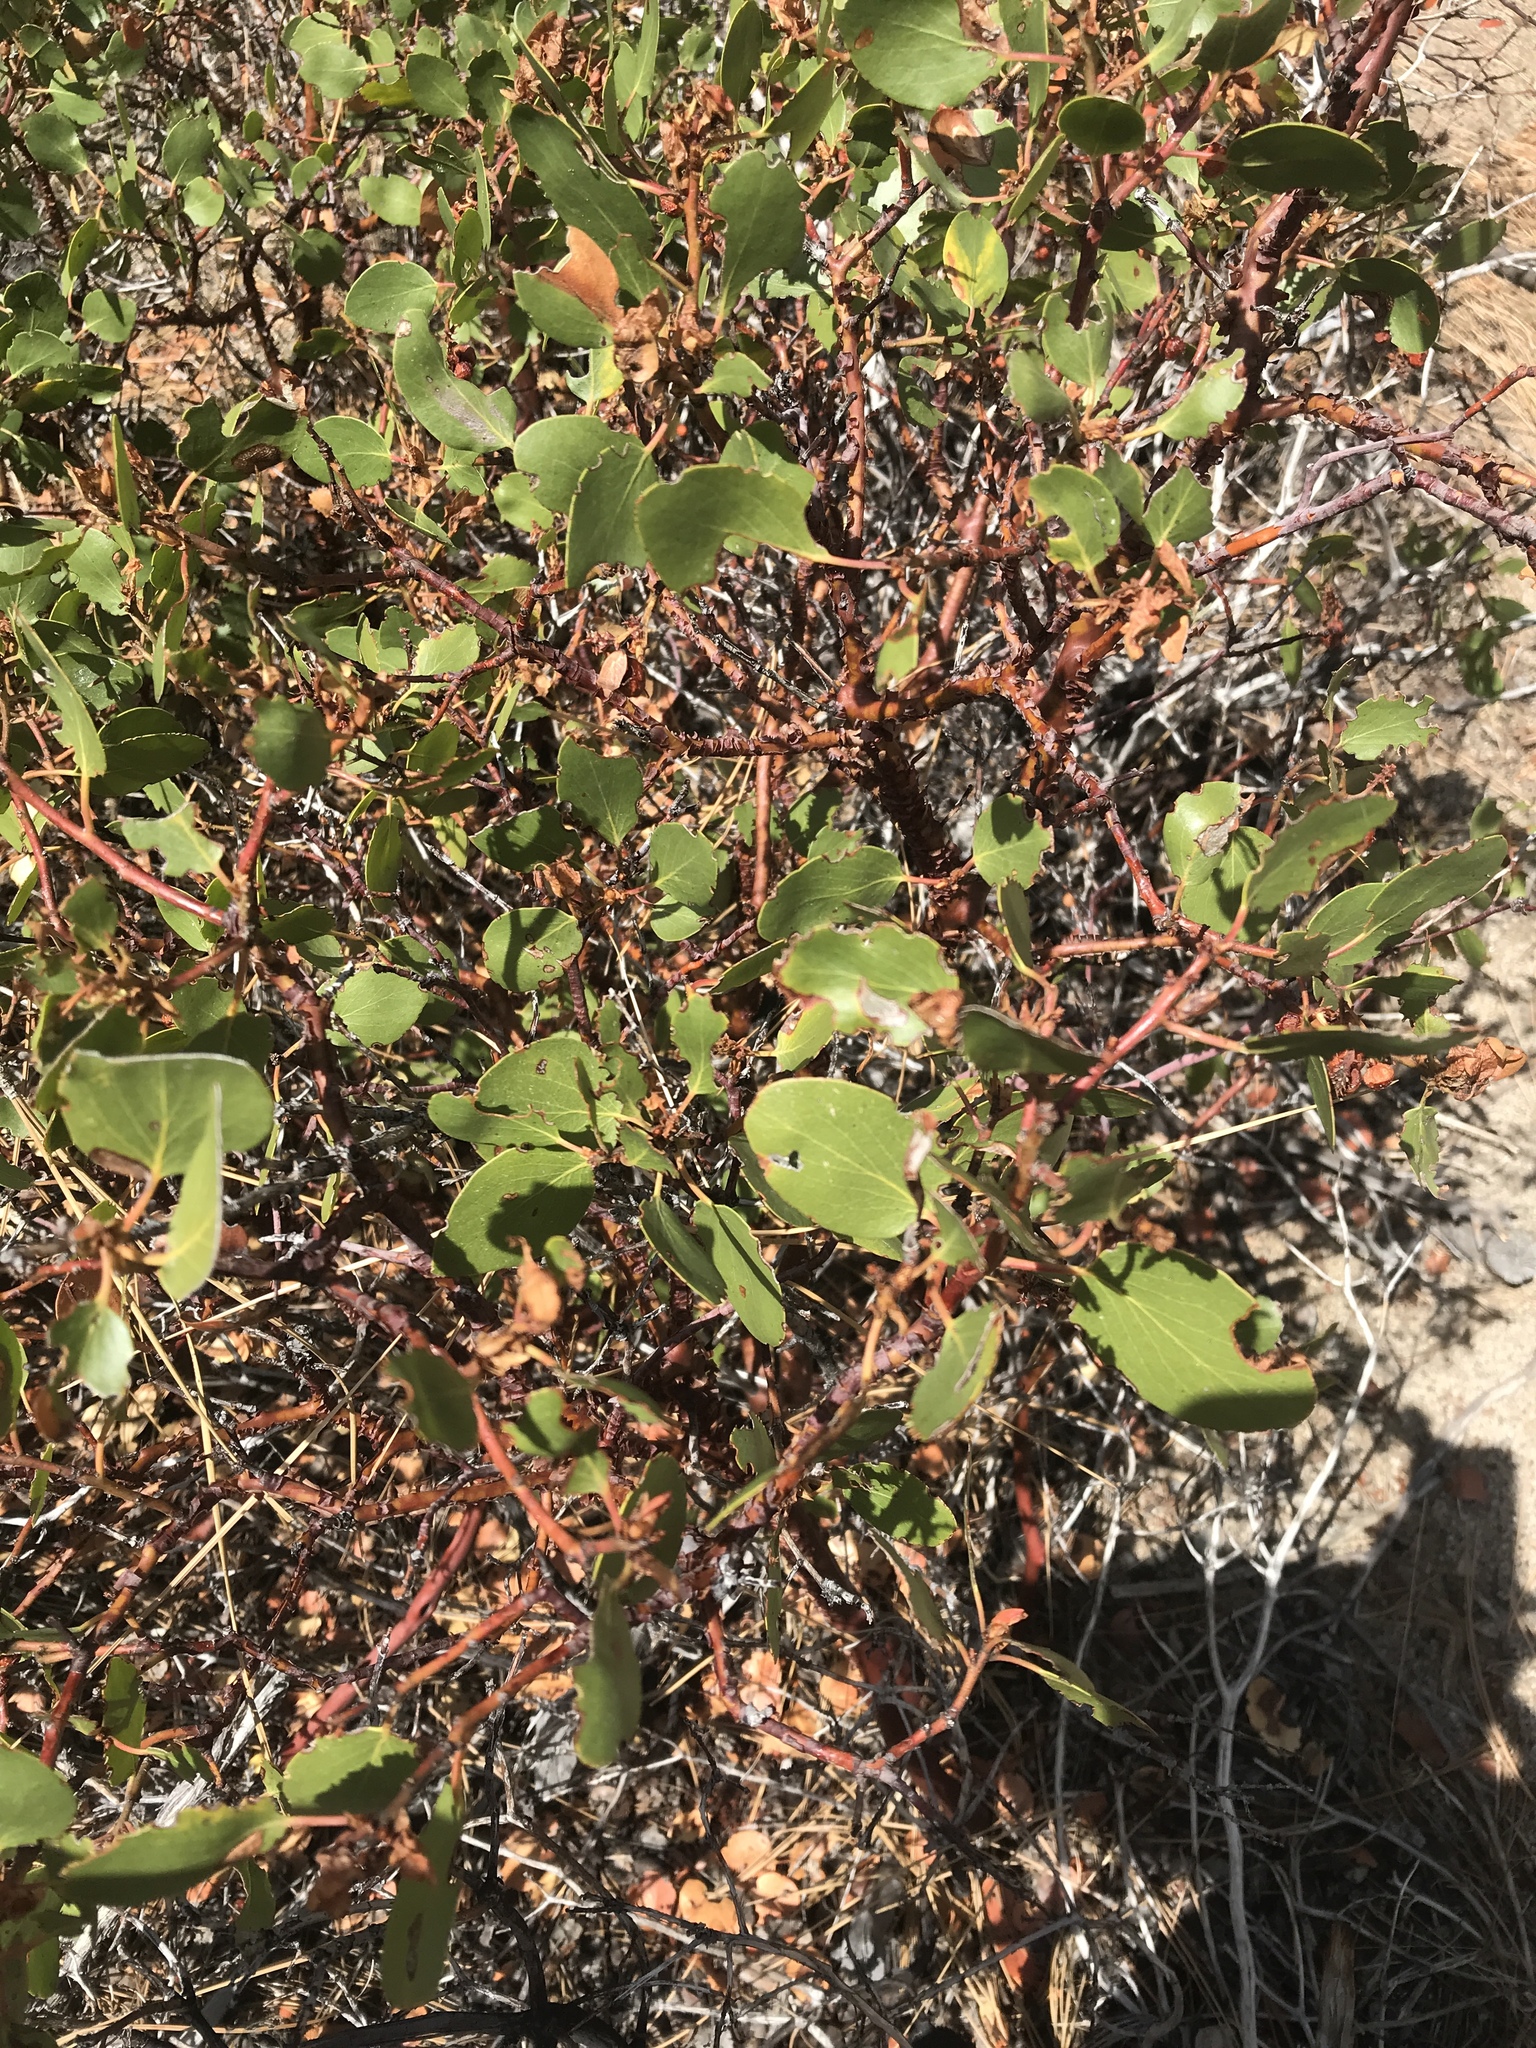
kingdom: Plantae
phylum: Tracheophyta
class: Magnoliopsida
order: Ericales
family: Ericaceae
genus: Arctostaphylos
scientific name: Arctostaphylos patula
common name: Green-leaf manzanita
